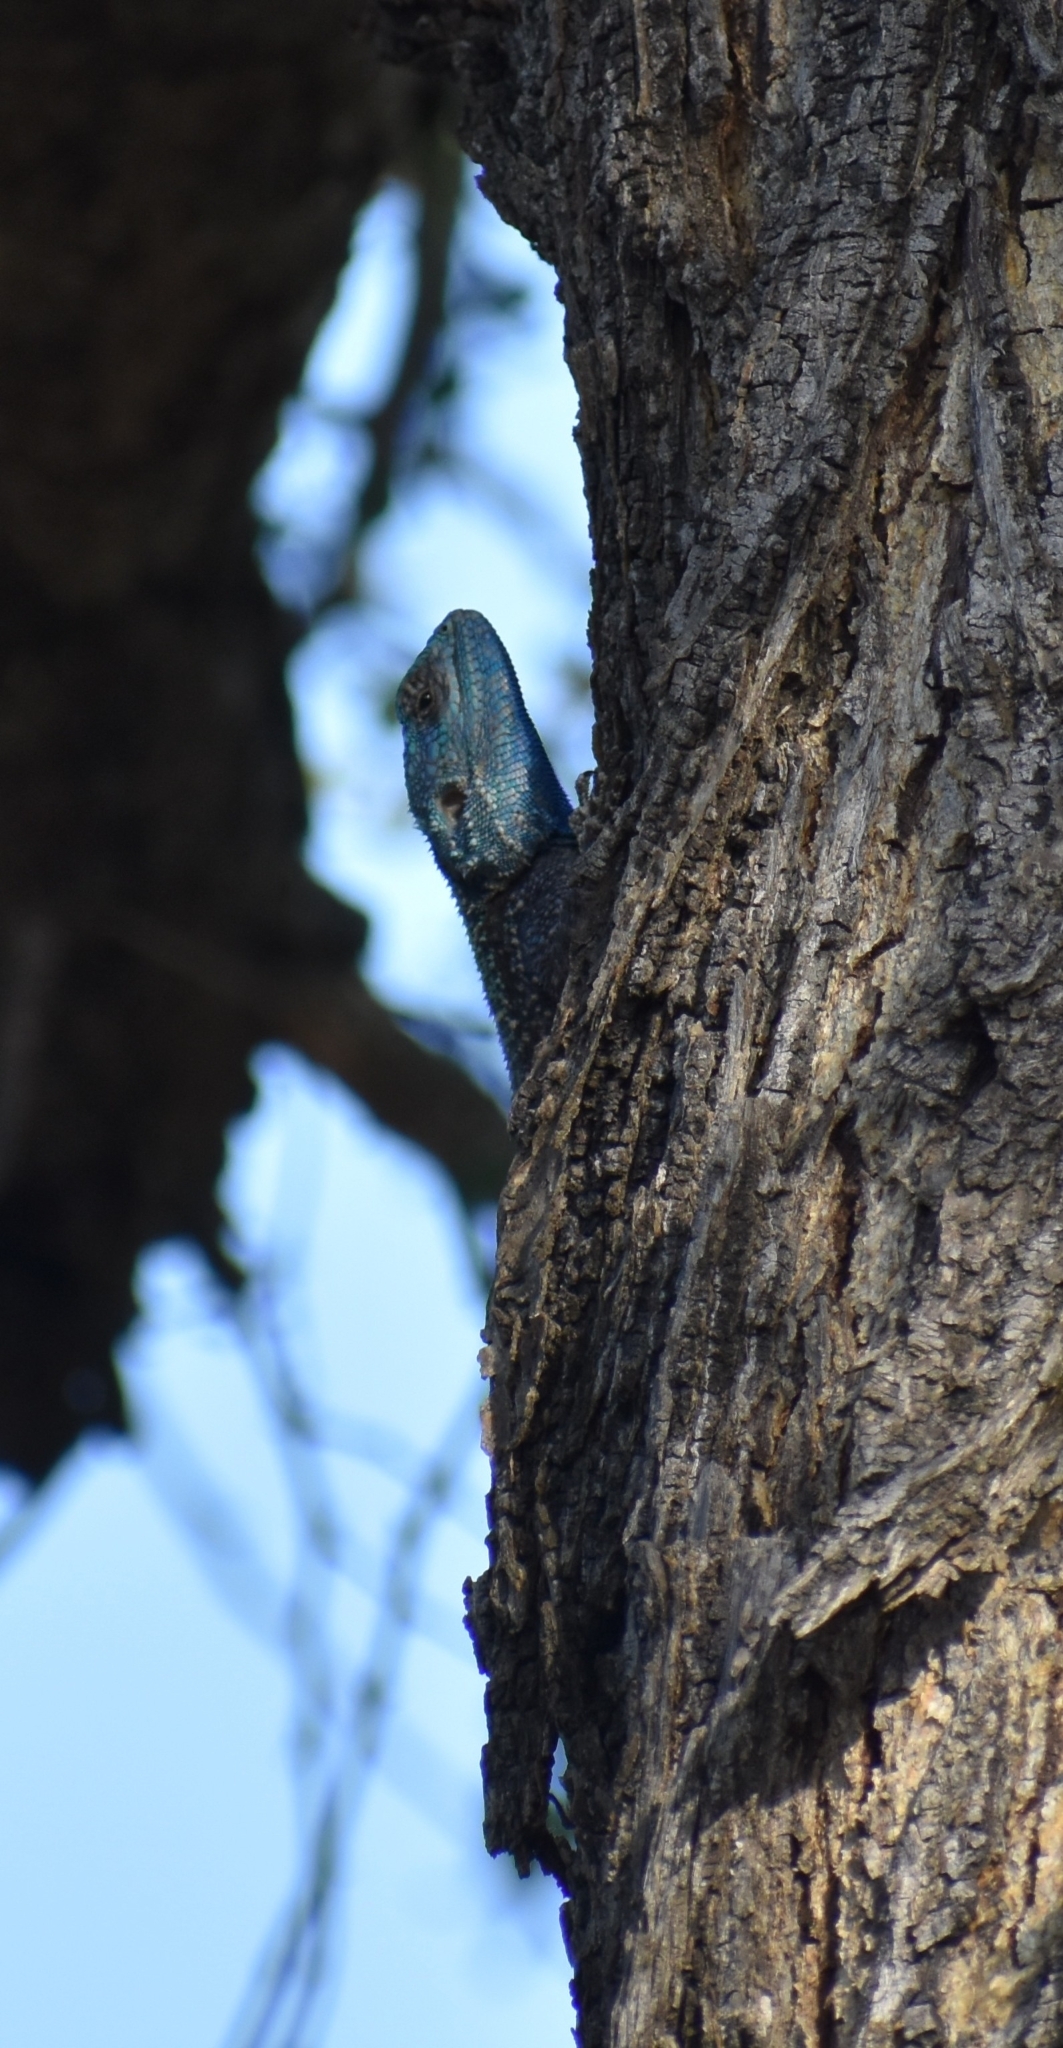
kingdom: Animalia
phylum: Chordata
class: Squamata
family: Agamidae
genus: Acanthocercus
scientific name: Acanthocercus atricollis
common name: Southern tree agama
